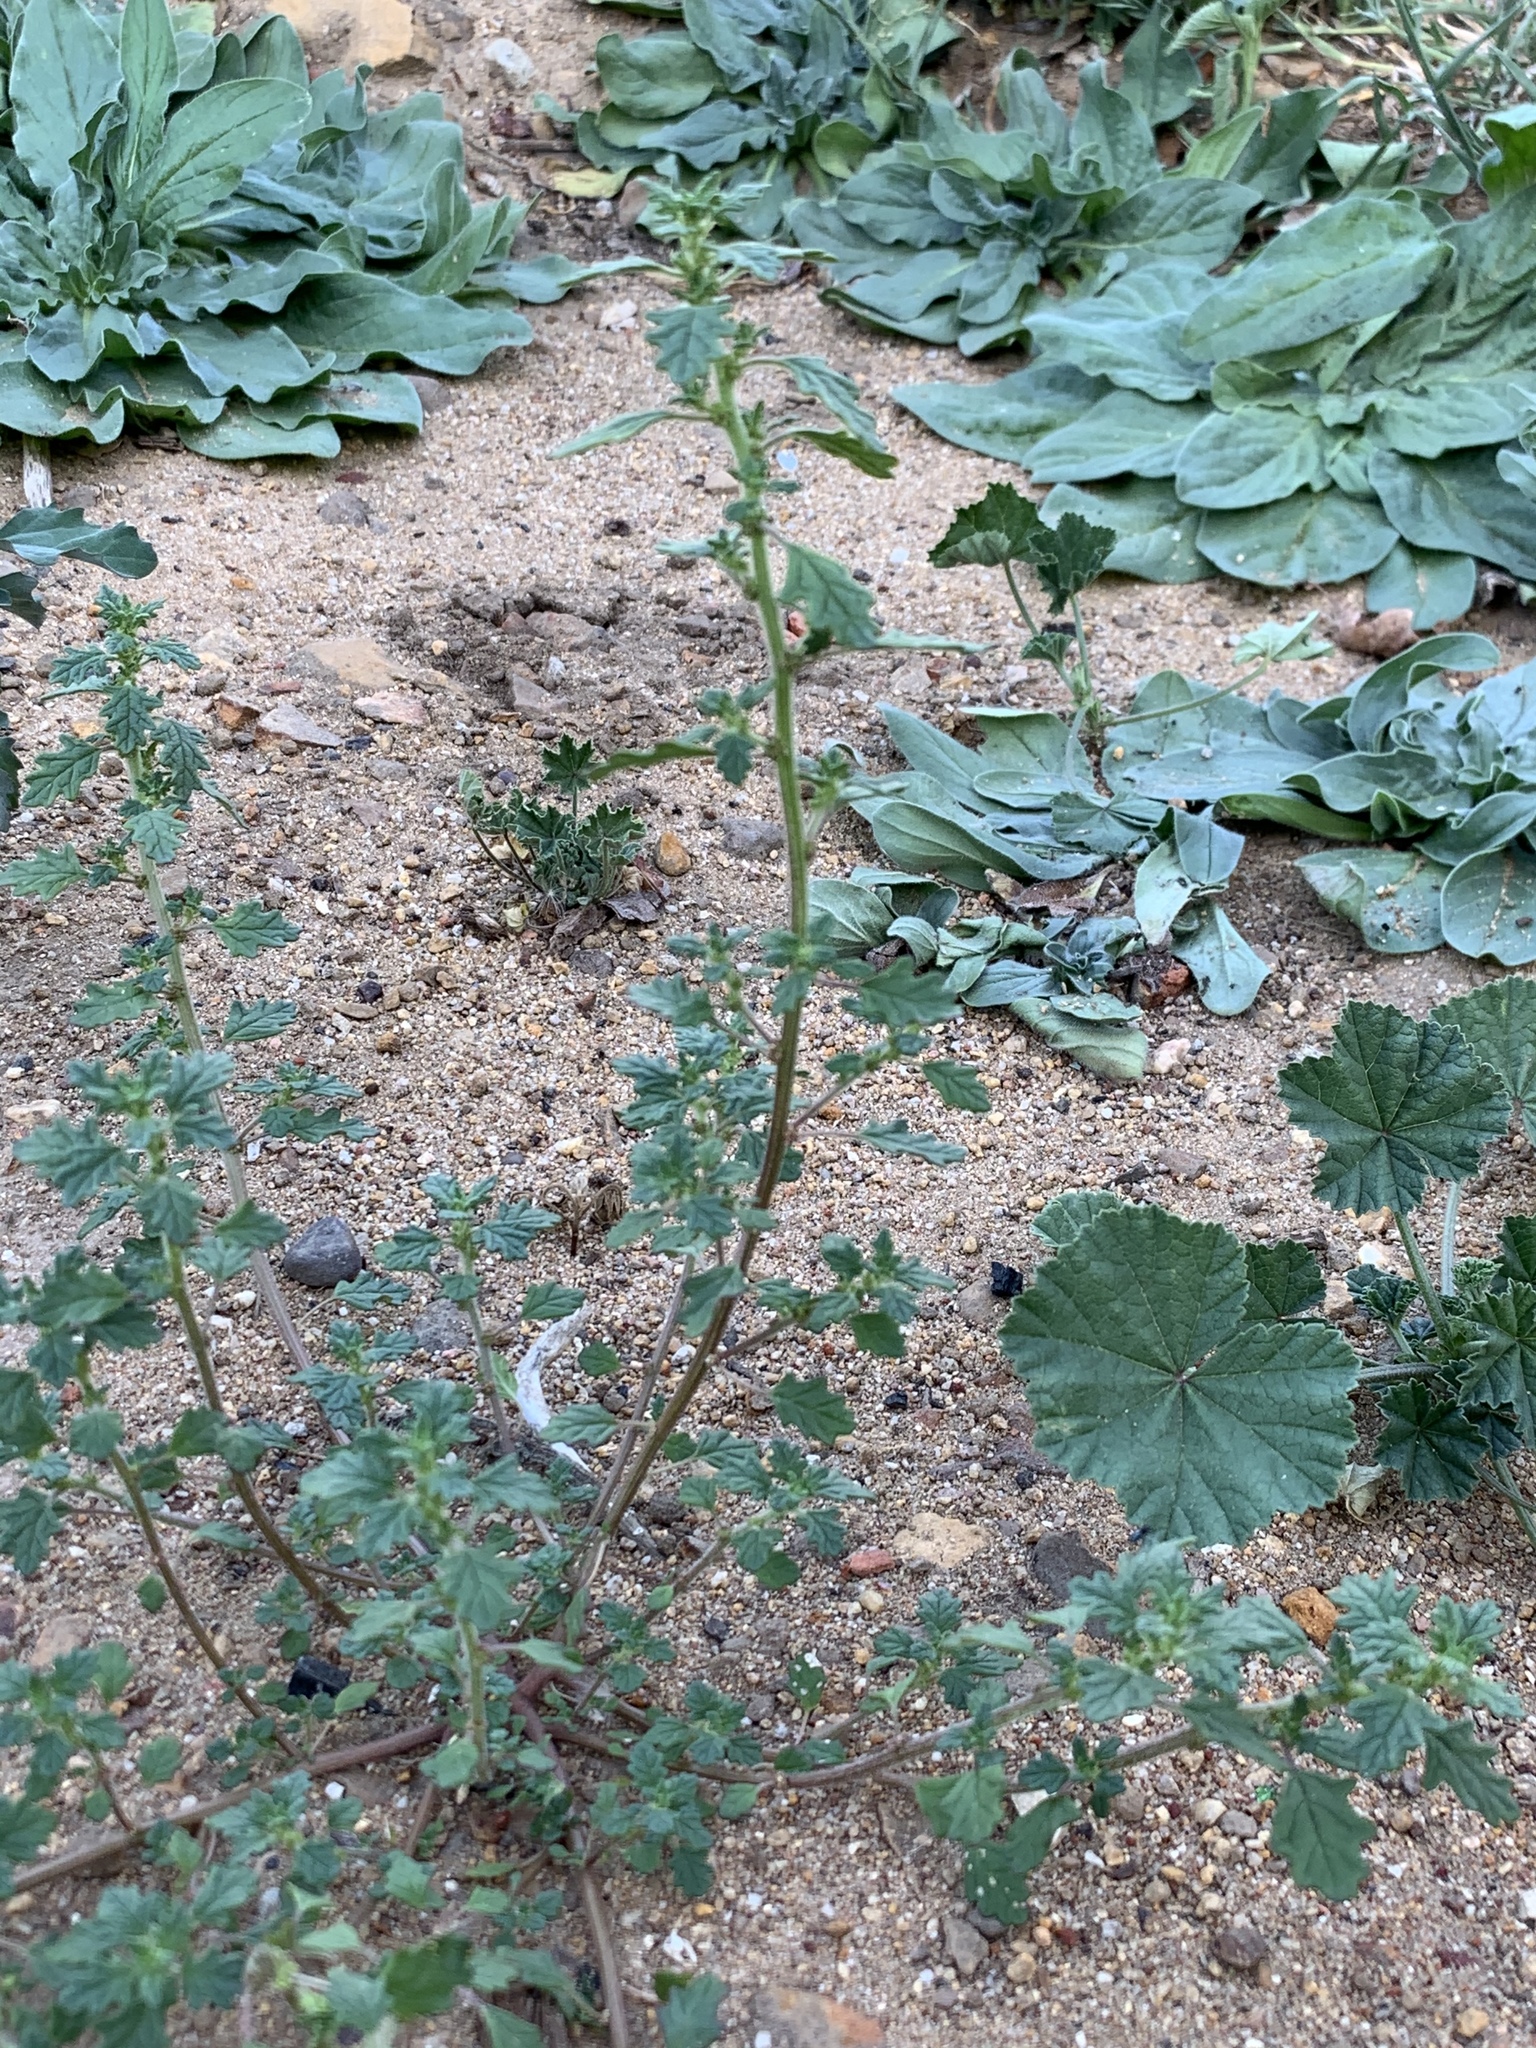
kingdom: Plantae
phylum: Tracheophyta
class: Magnoliopsida
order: Caryophyllales
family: Amaranthaceae
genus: Dysphania
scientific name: Dysphania carinata
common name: Keeled wormseed
